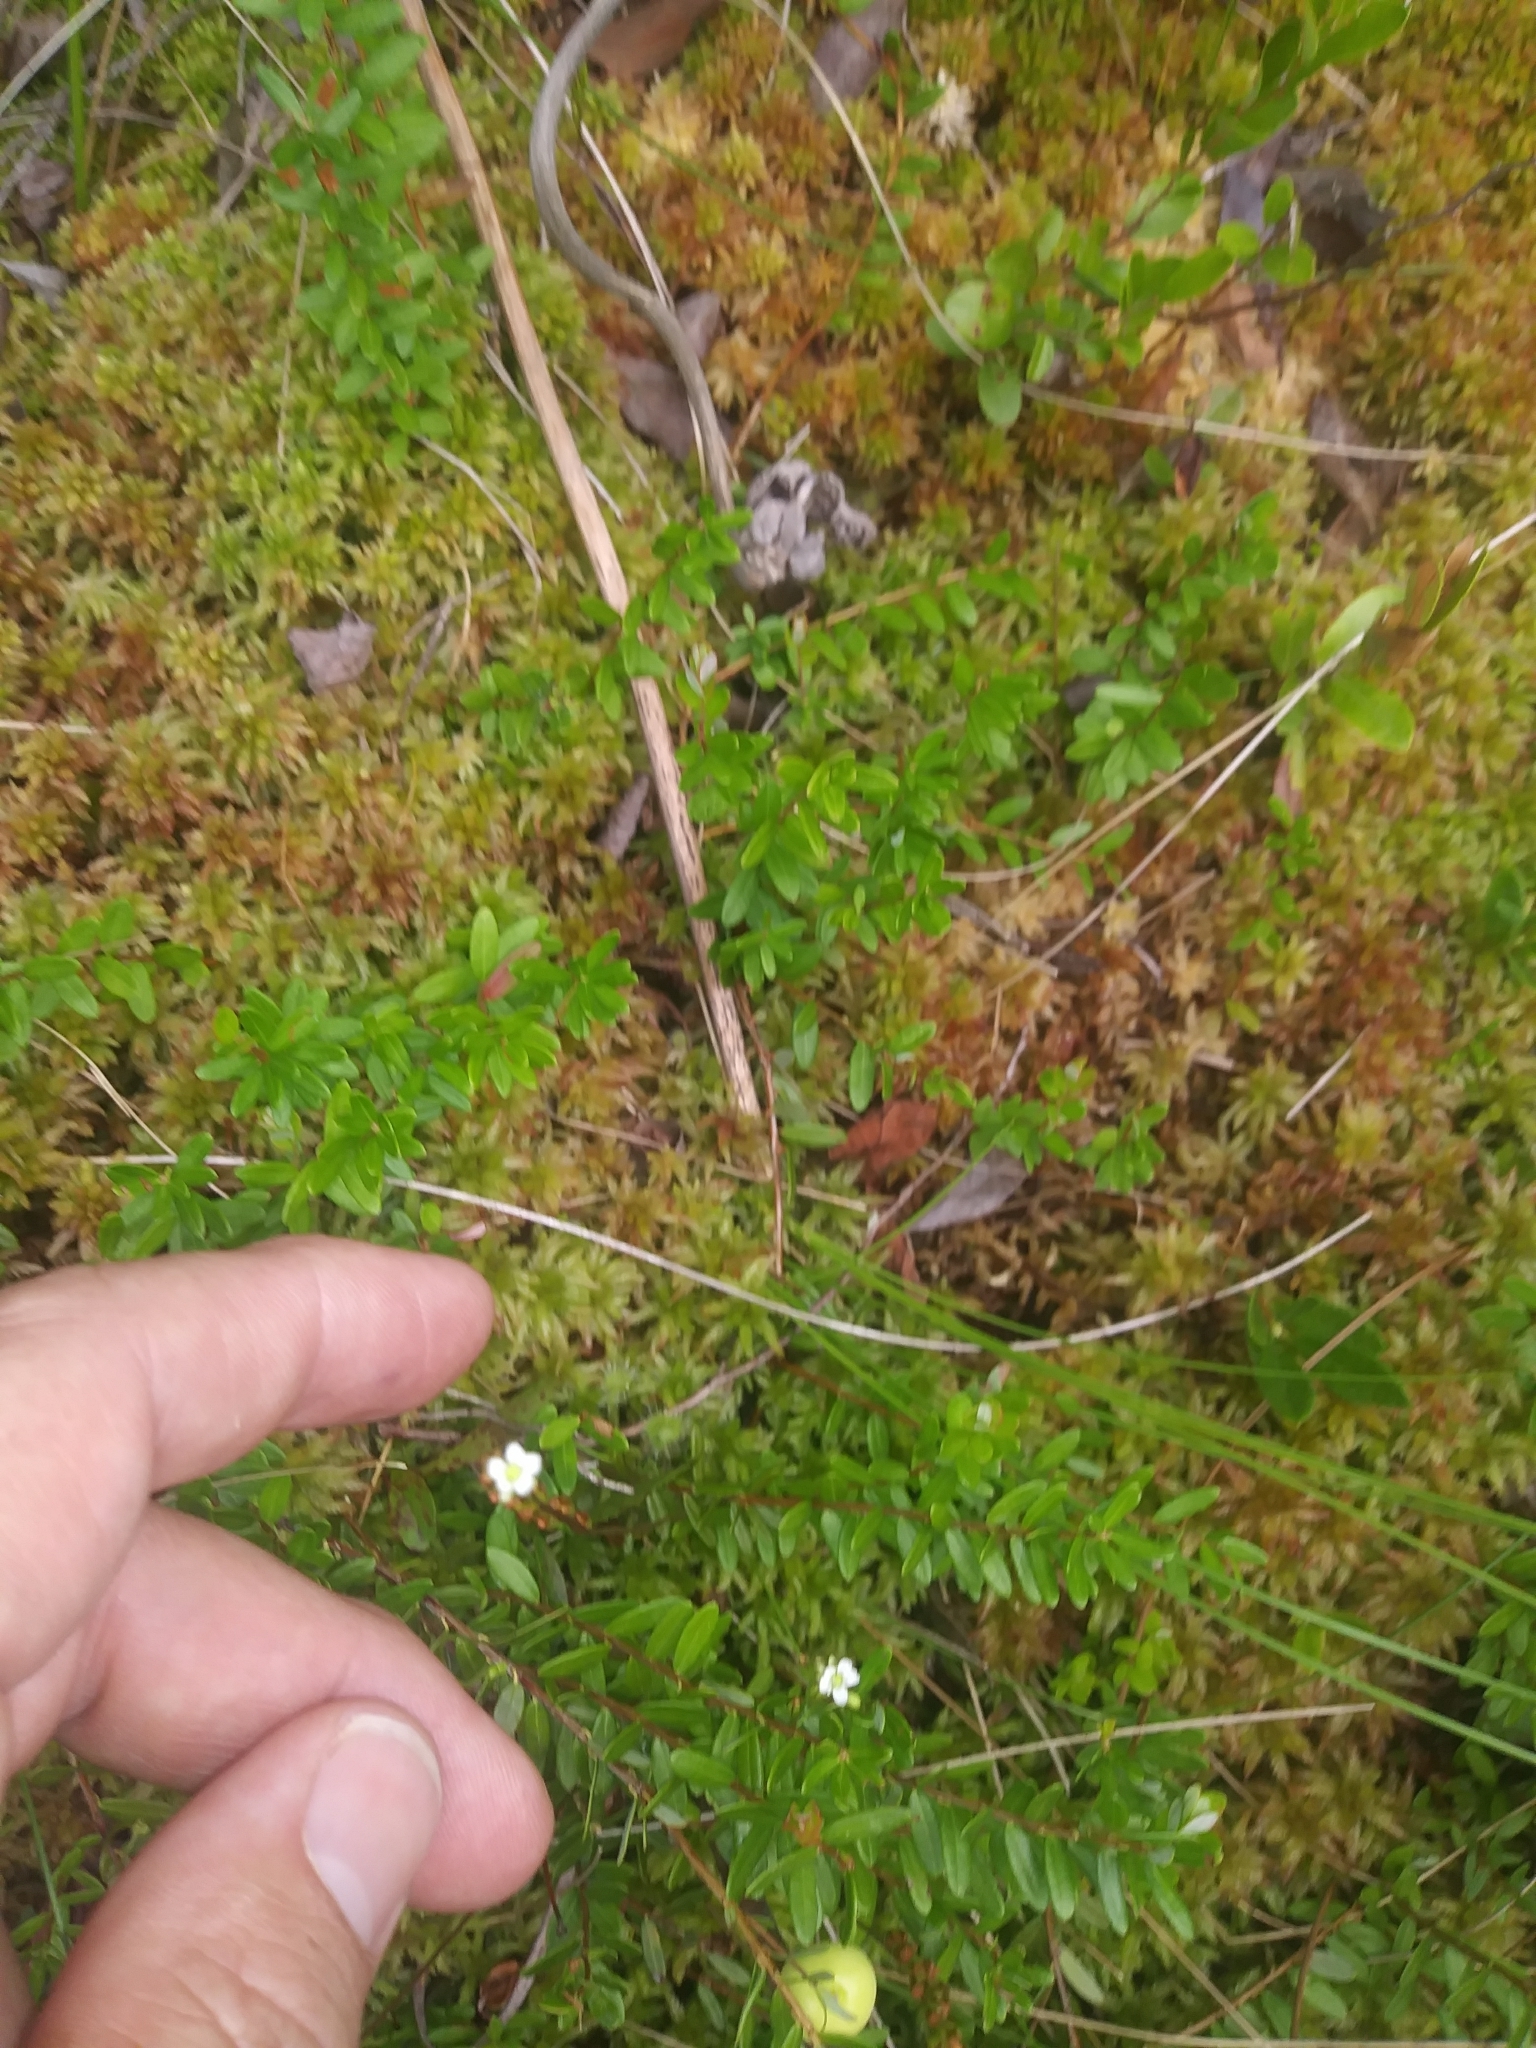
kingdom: Plantae
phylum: Tracheophyta
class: Magnoliopsida
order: Caryophyllales
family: Droseraceae
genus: Drosera
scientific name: Drosera rotundifolia
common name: Round-leaved sundew
